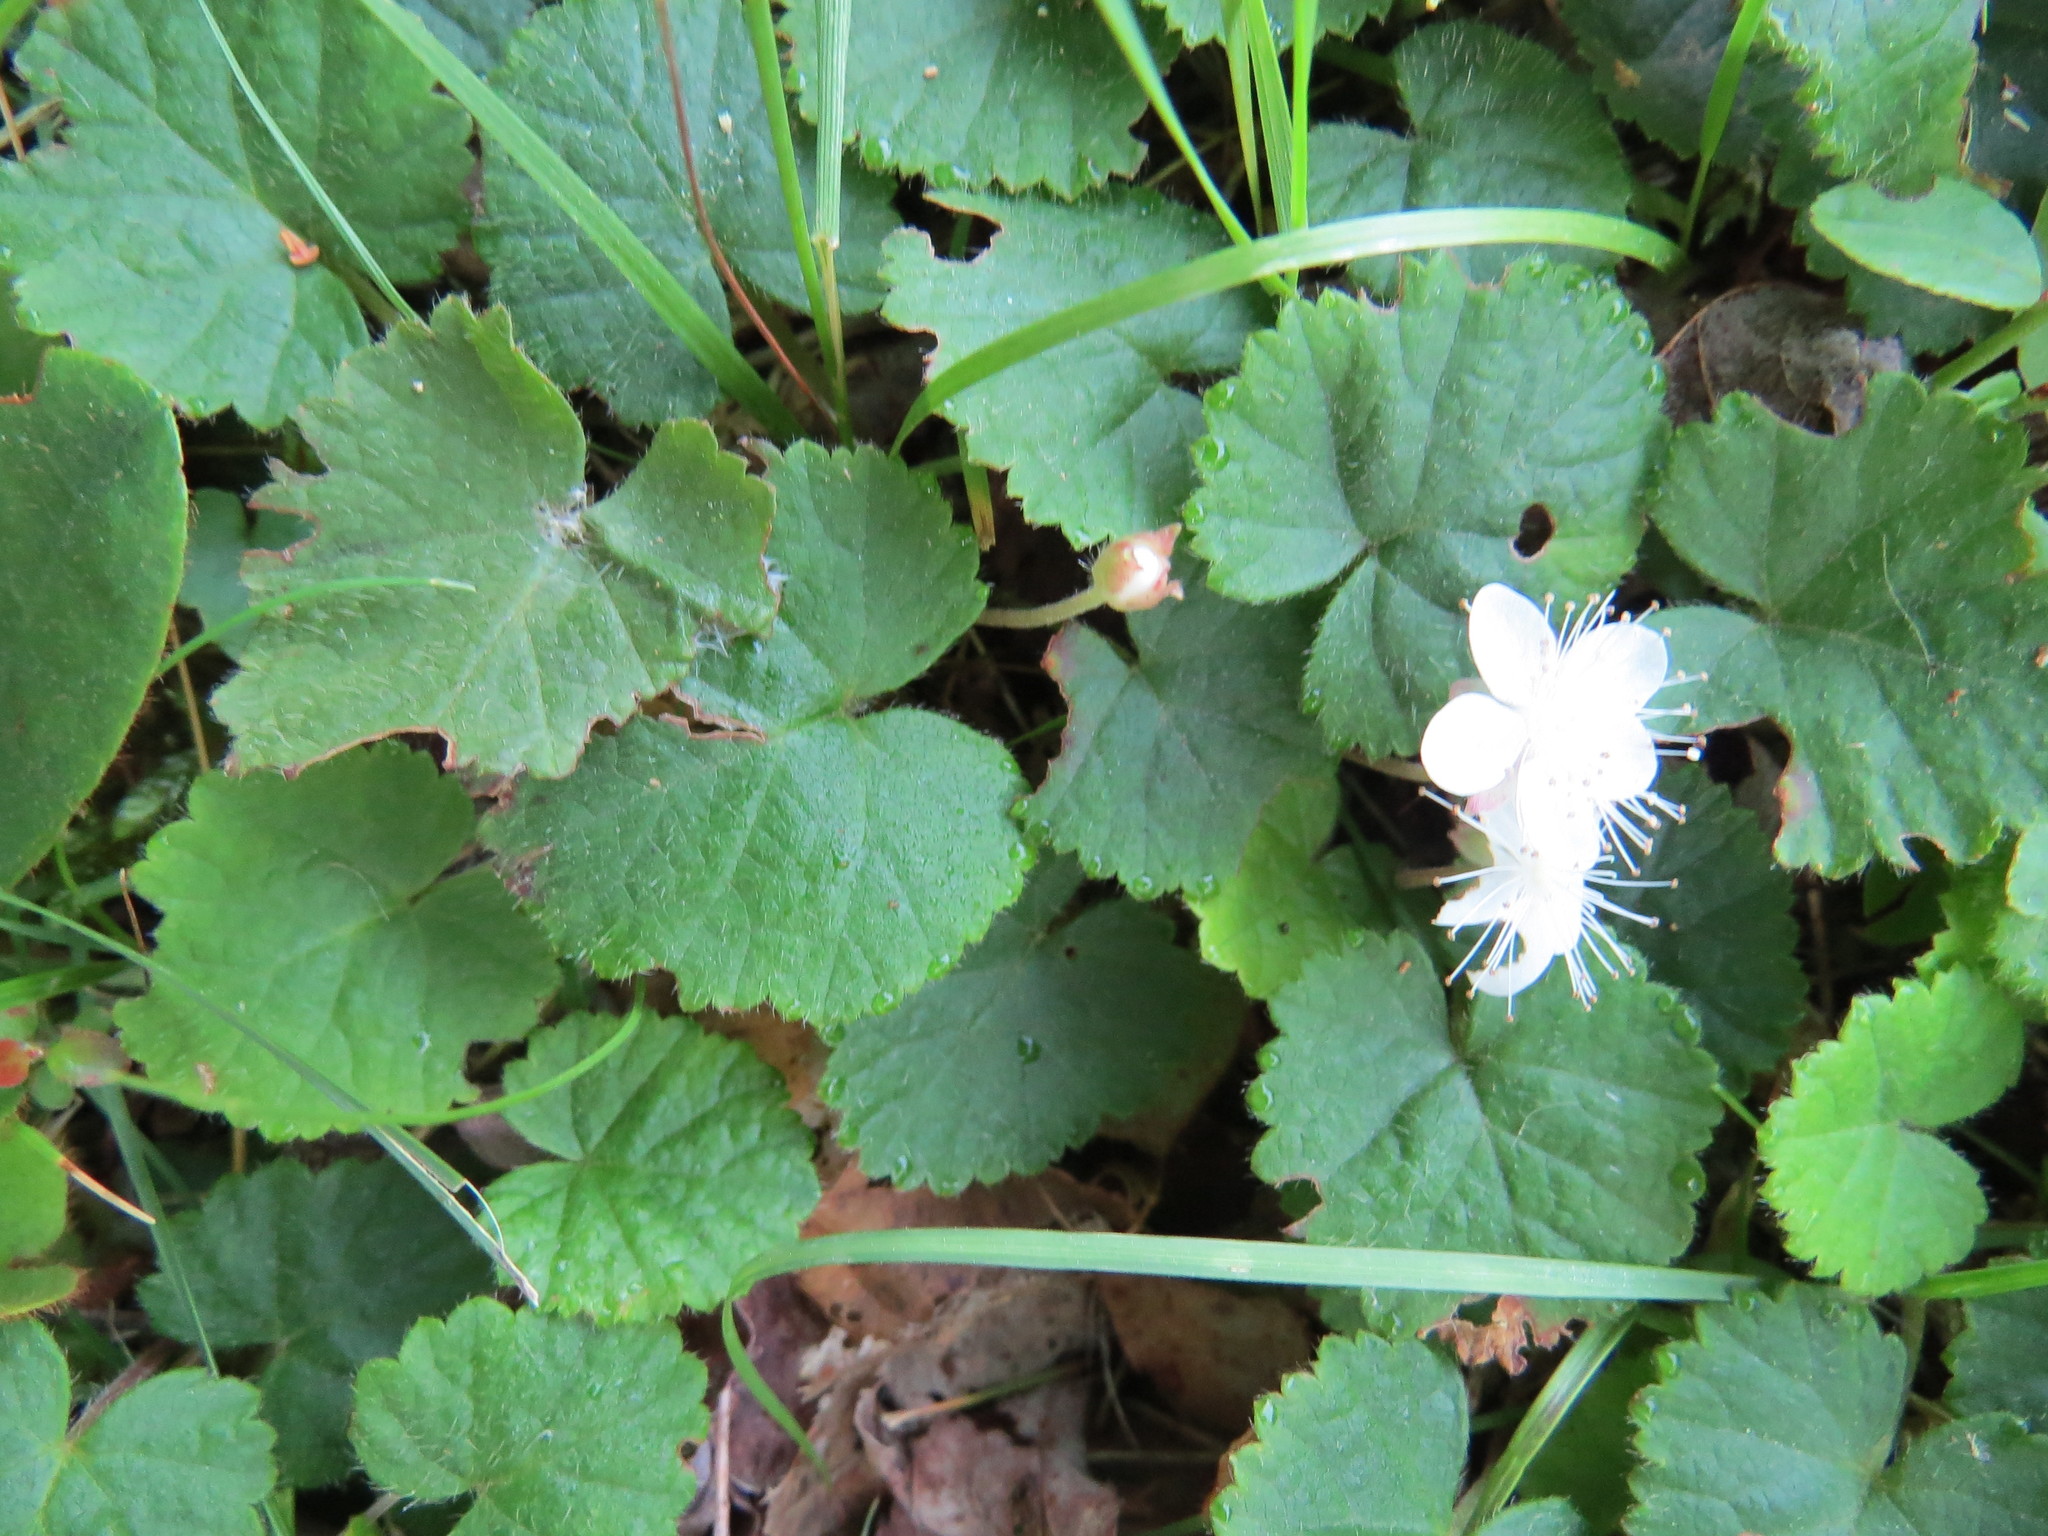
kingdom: Plantae
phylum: Tracheophyta
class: Magnoliopsida
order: Rosales
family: Rosaceae
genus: Dalibarda
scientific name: Dalibarda repens
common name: Dewdrop
